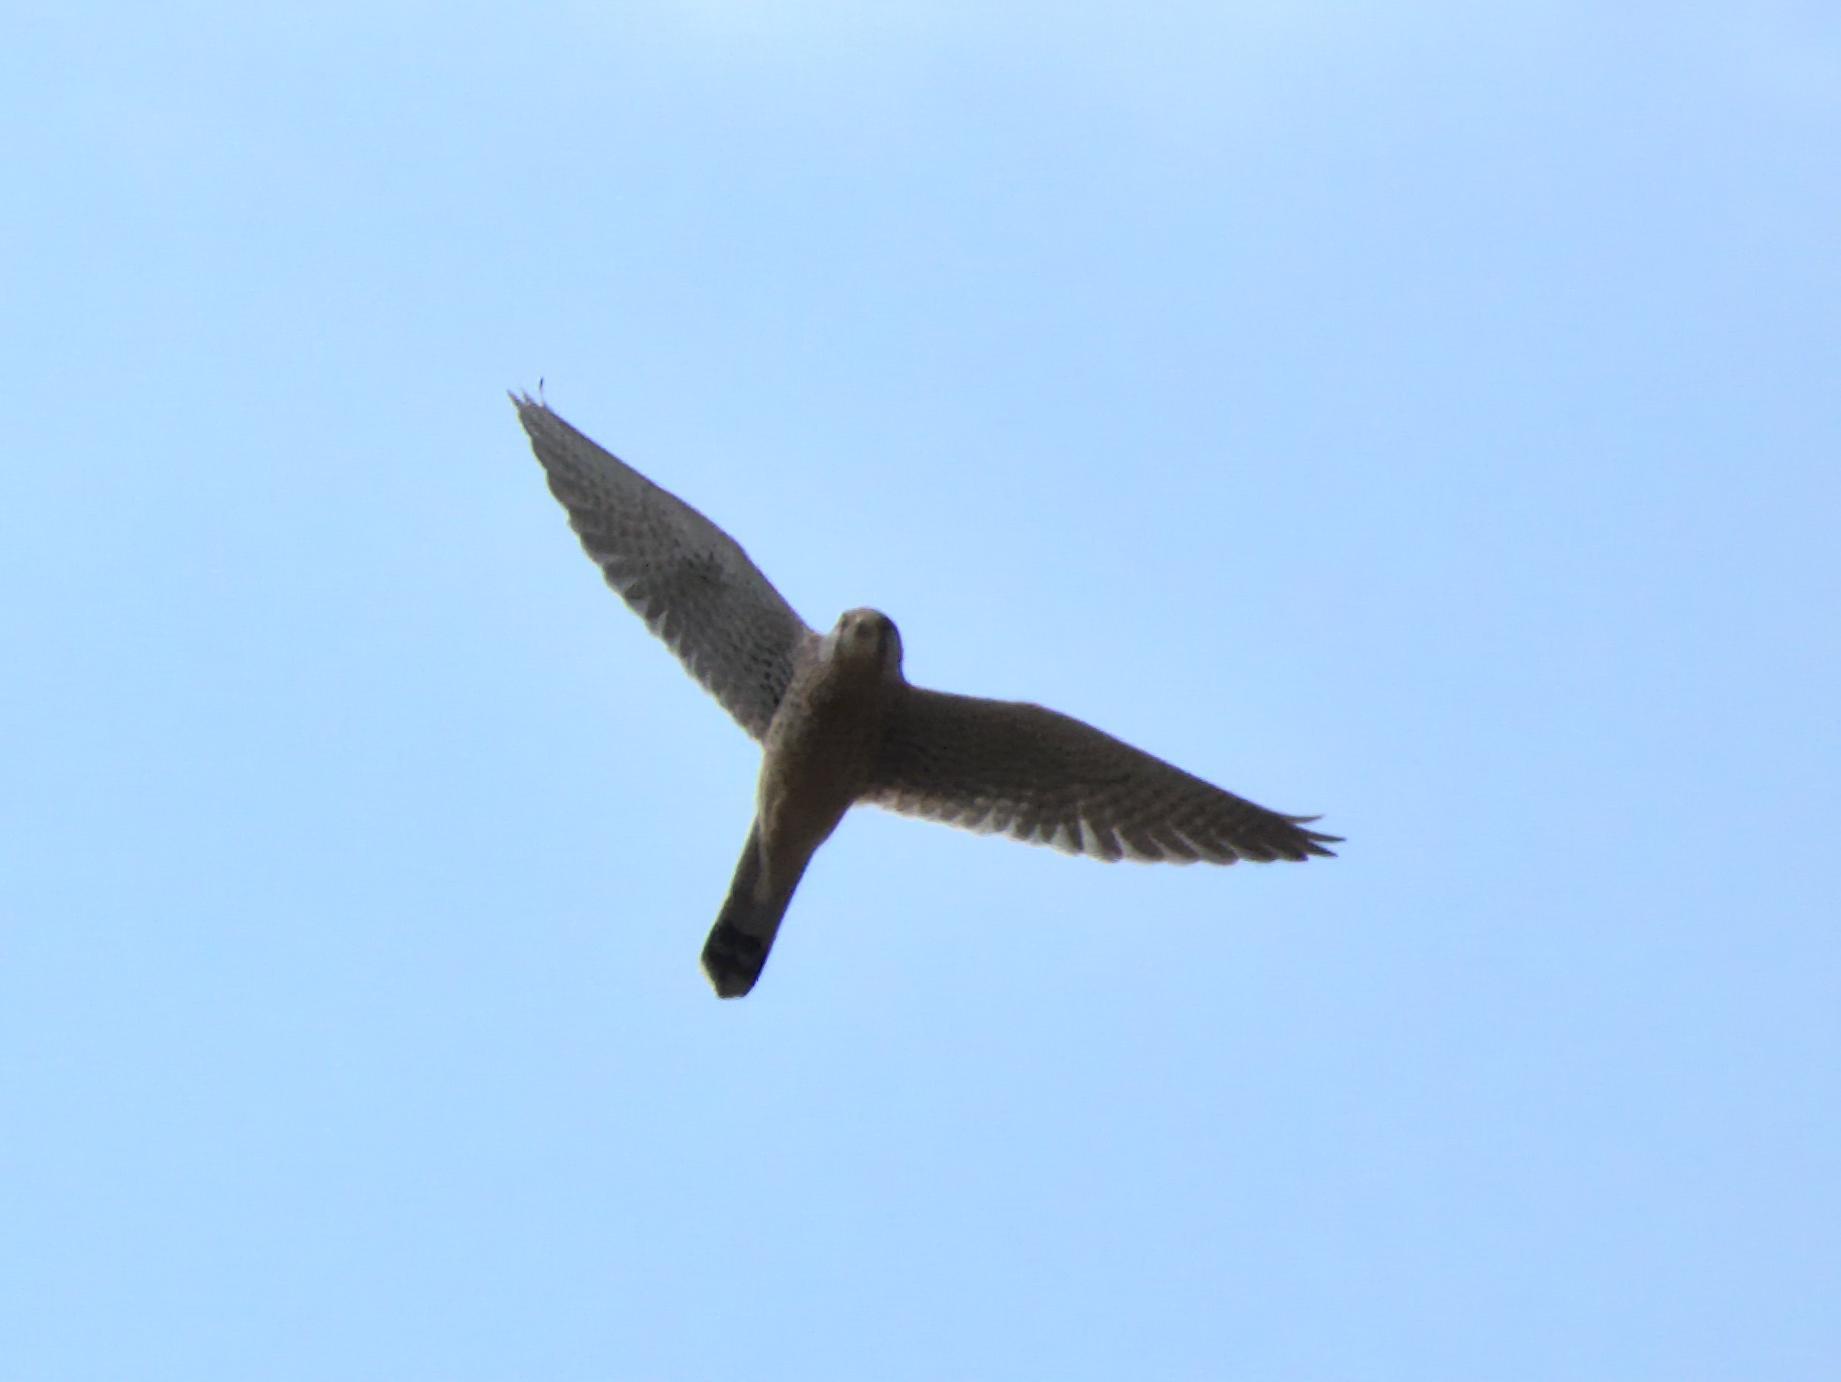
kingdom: Animalia
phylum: Chordata
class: Aves
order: Falconiformes
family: Falconidae
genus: Falco
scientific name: Falco tinnunculus
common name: Common kestrel
